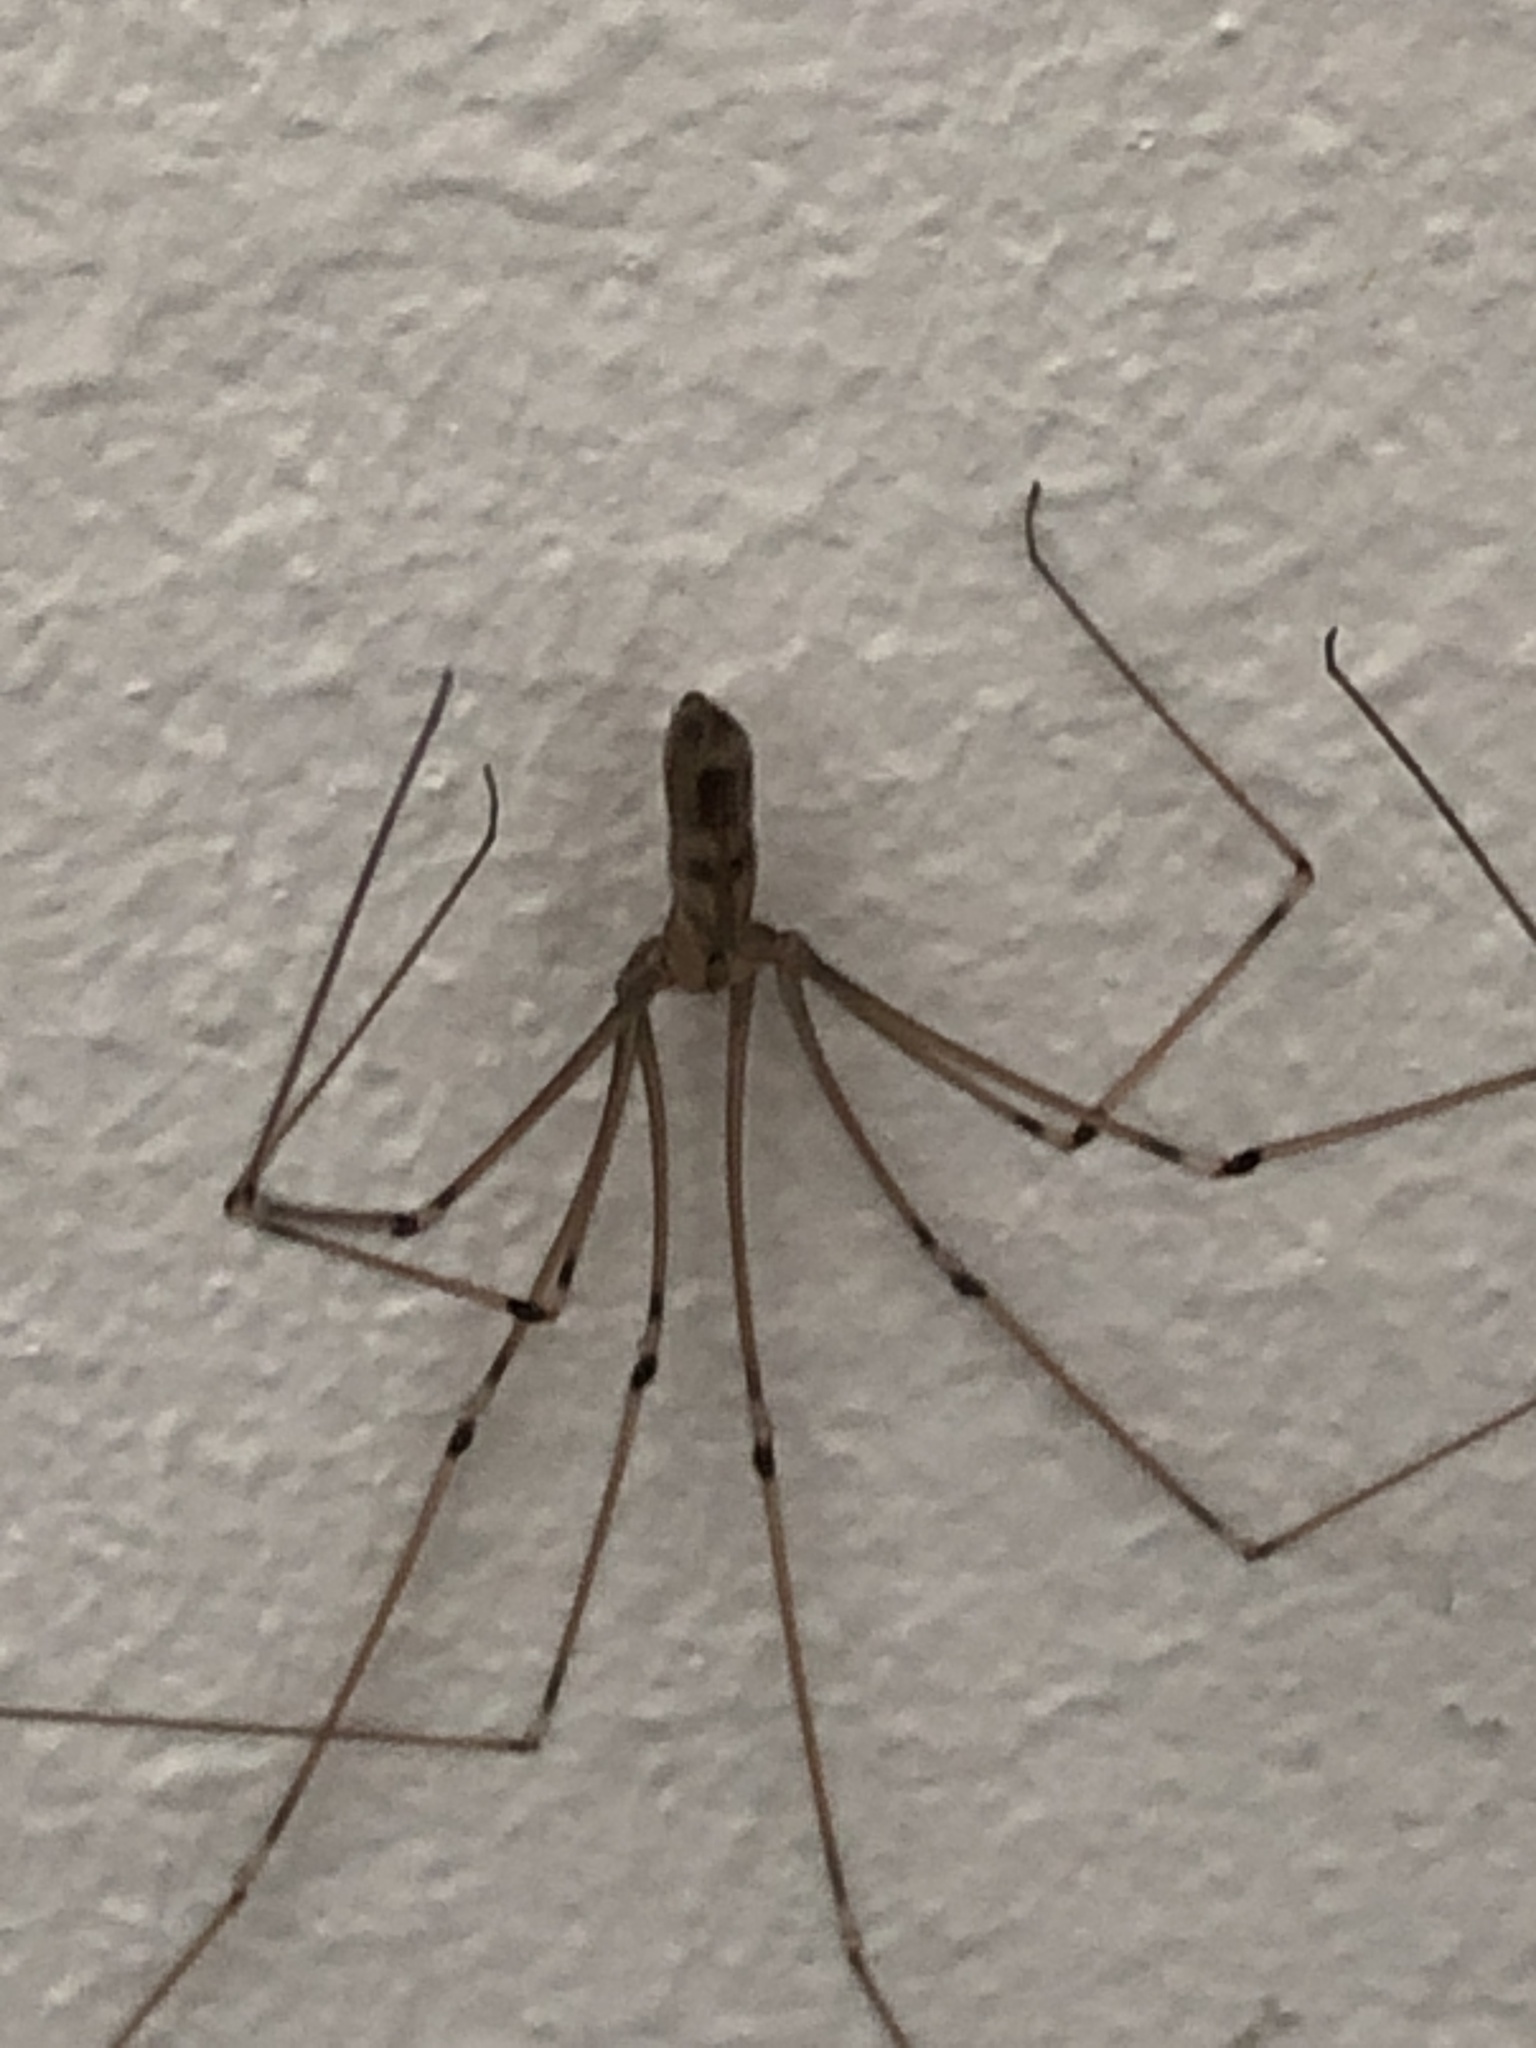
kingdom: Animalia
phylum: Arthropoda
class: Arachnida
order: Araneae
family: Pholcidae
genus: Pholcus
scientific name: Pholcus phalangioides
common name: Longbodied cellar spider
